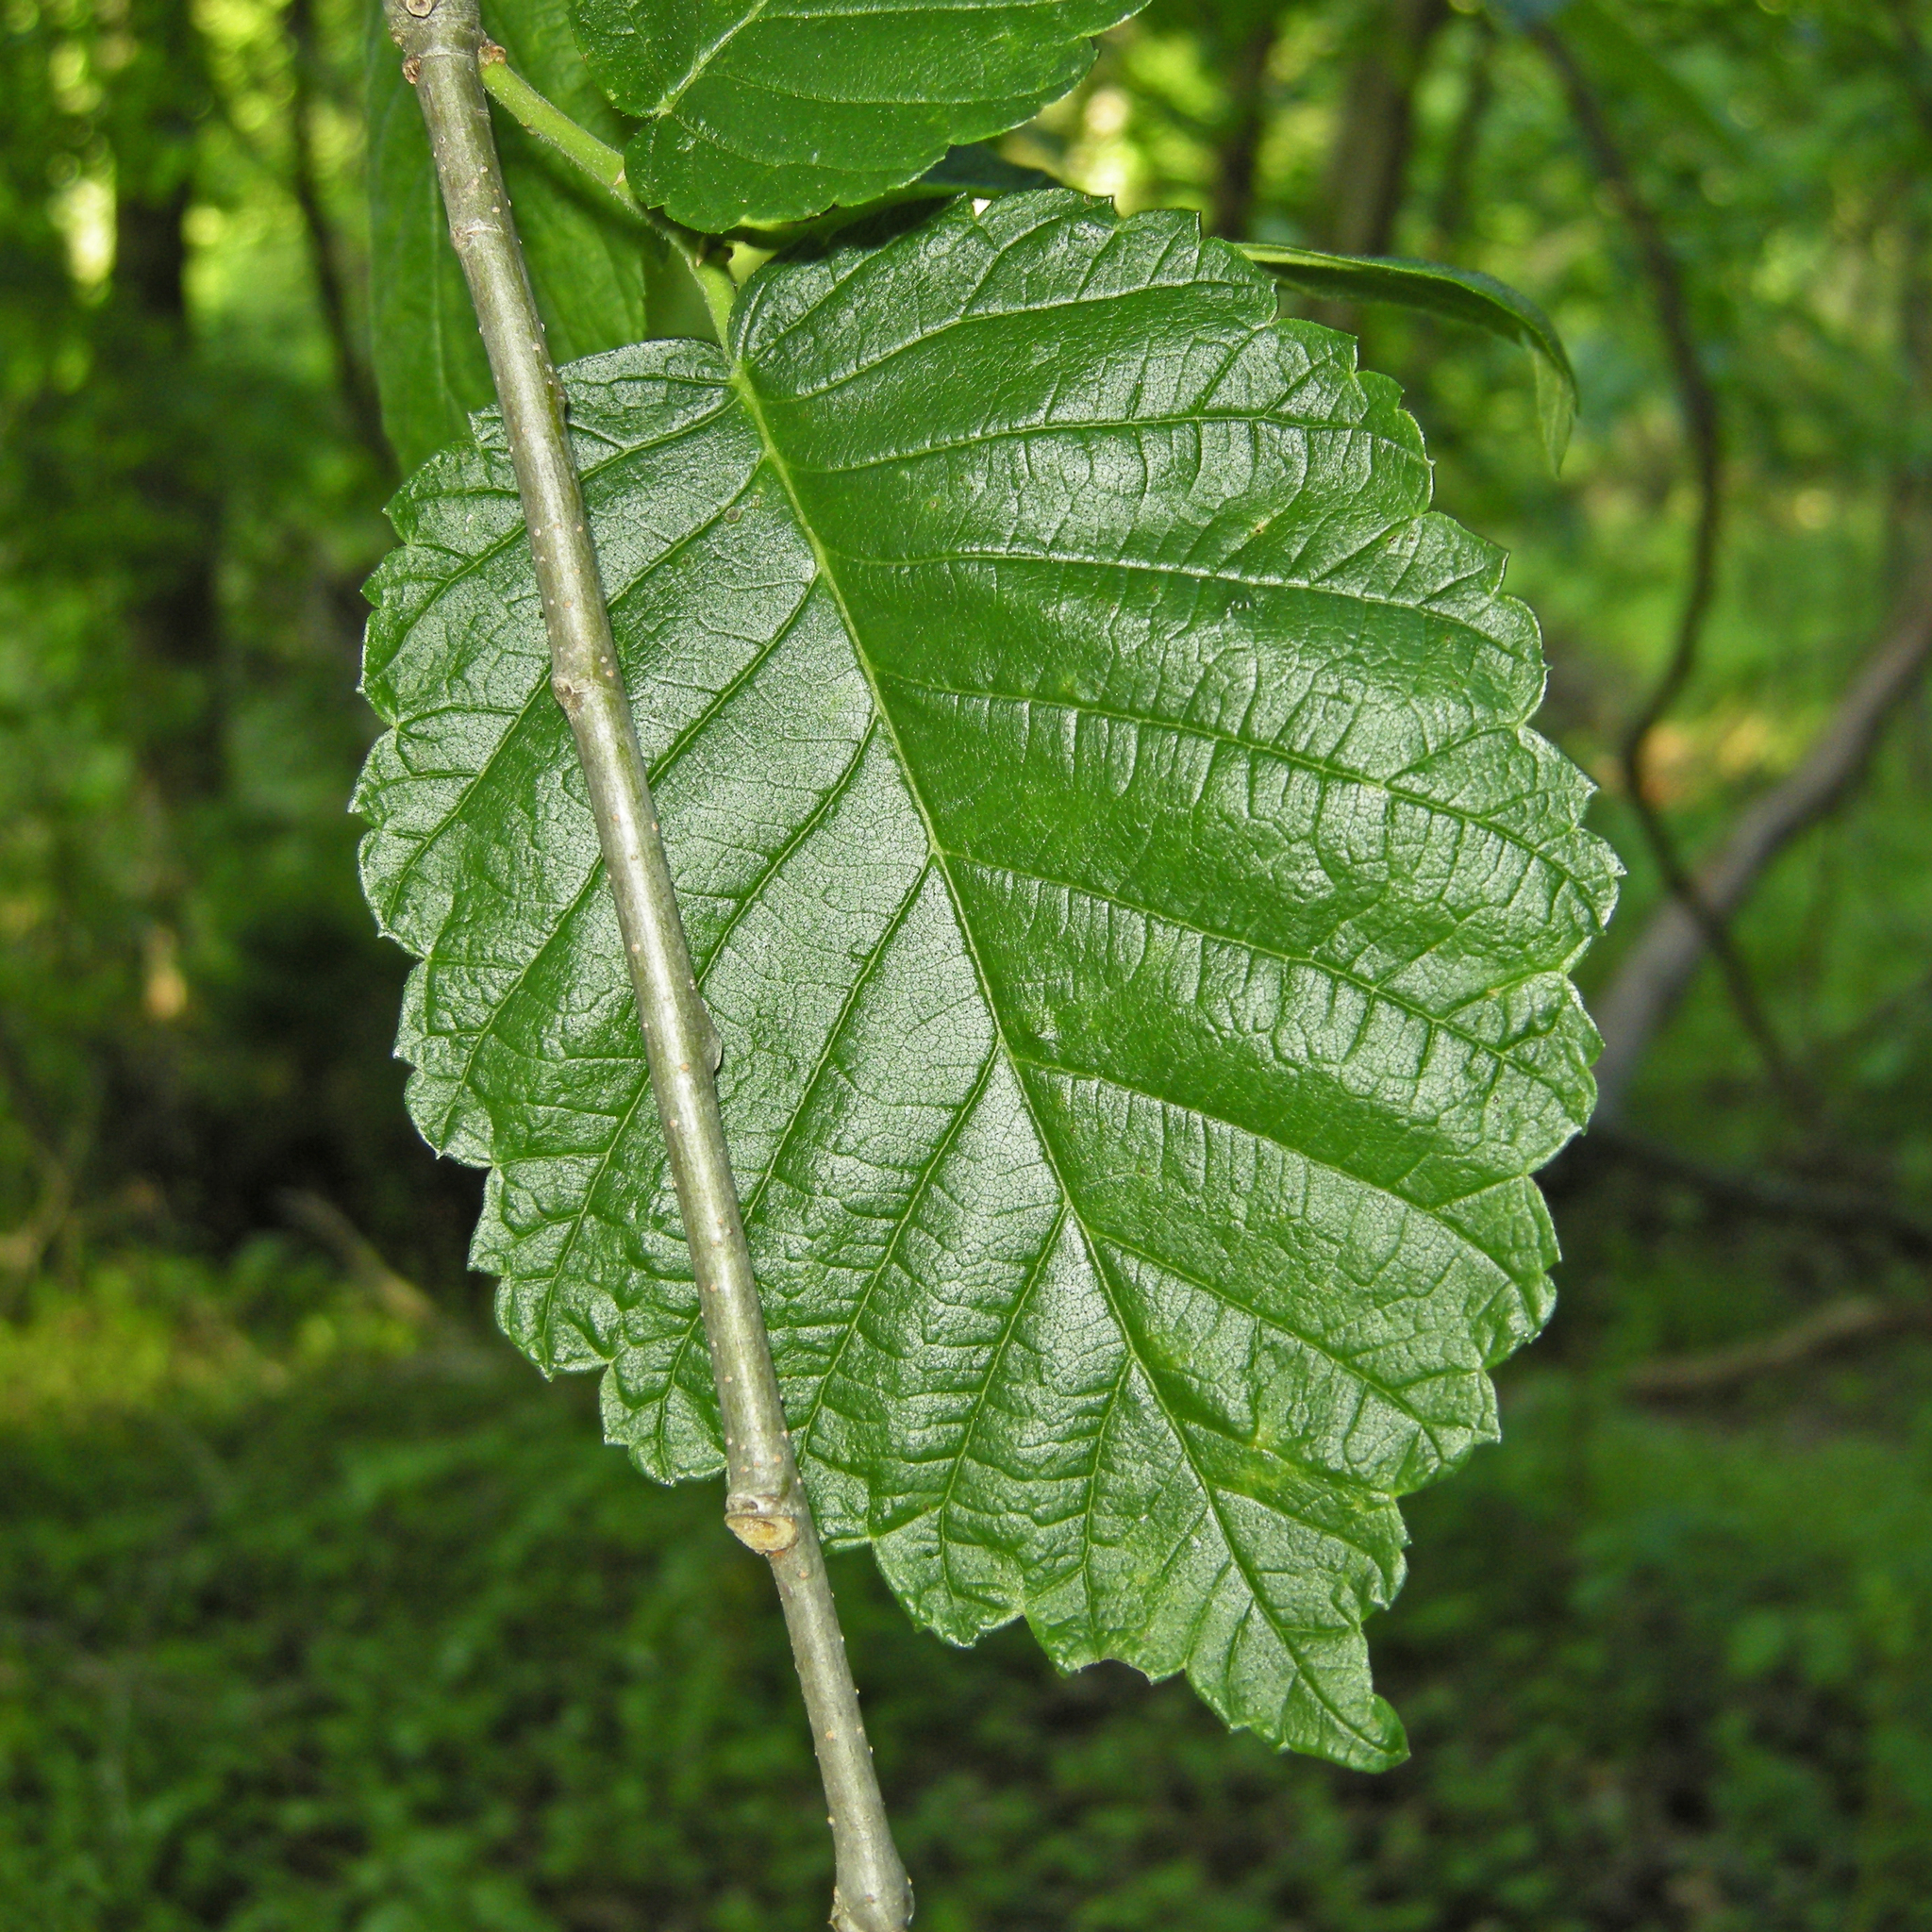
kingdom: Plantae
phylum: Tracheophyta
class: Magnoliopsida
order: Rosales
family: Ulmaceae
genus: Ulmus
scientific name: Ulmus americana
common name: American elm
